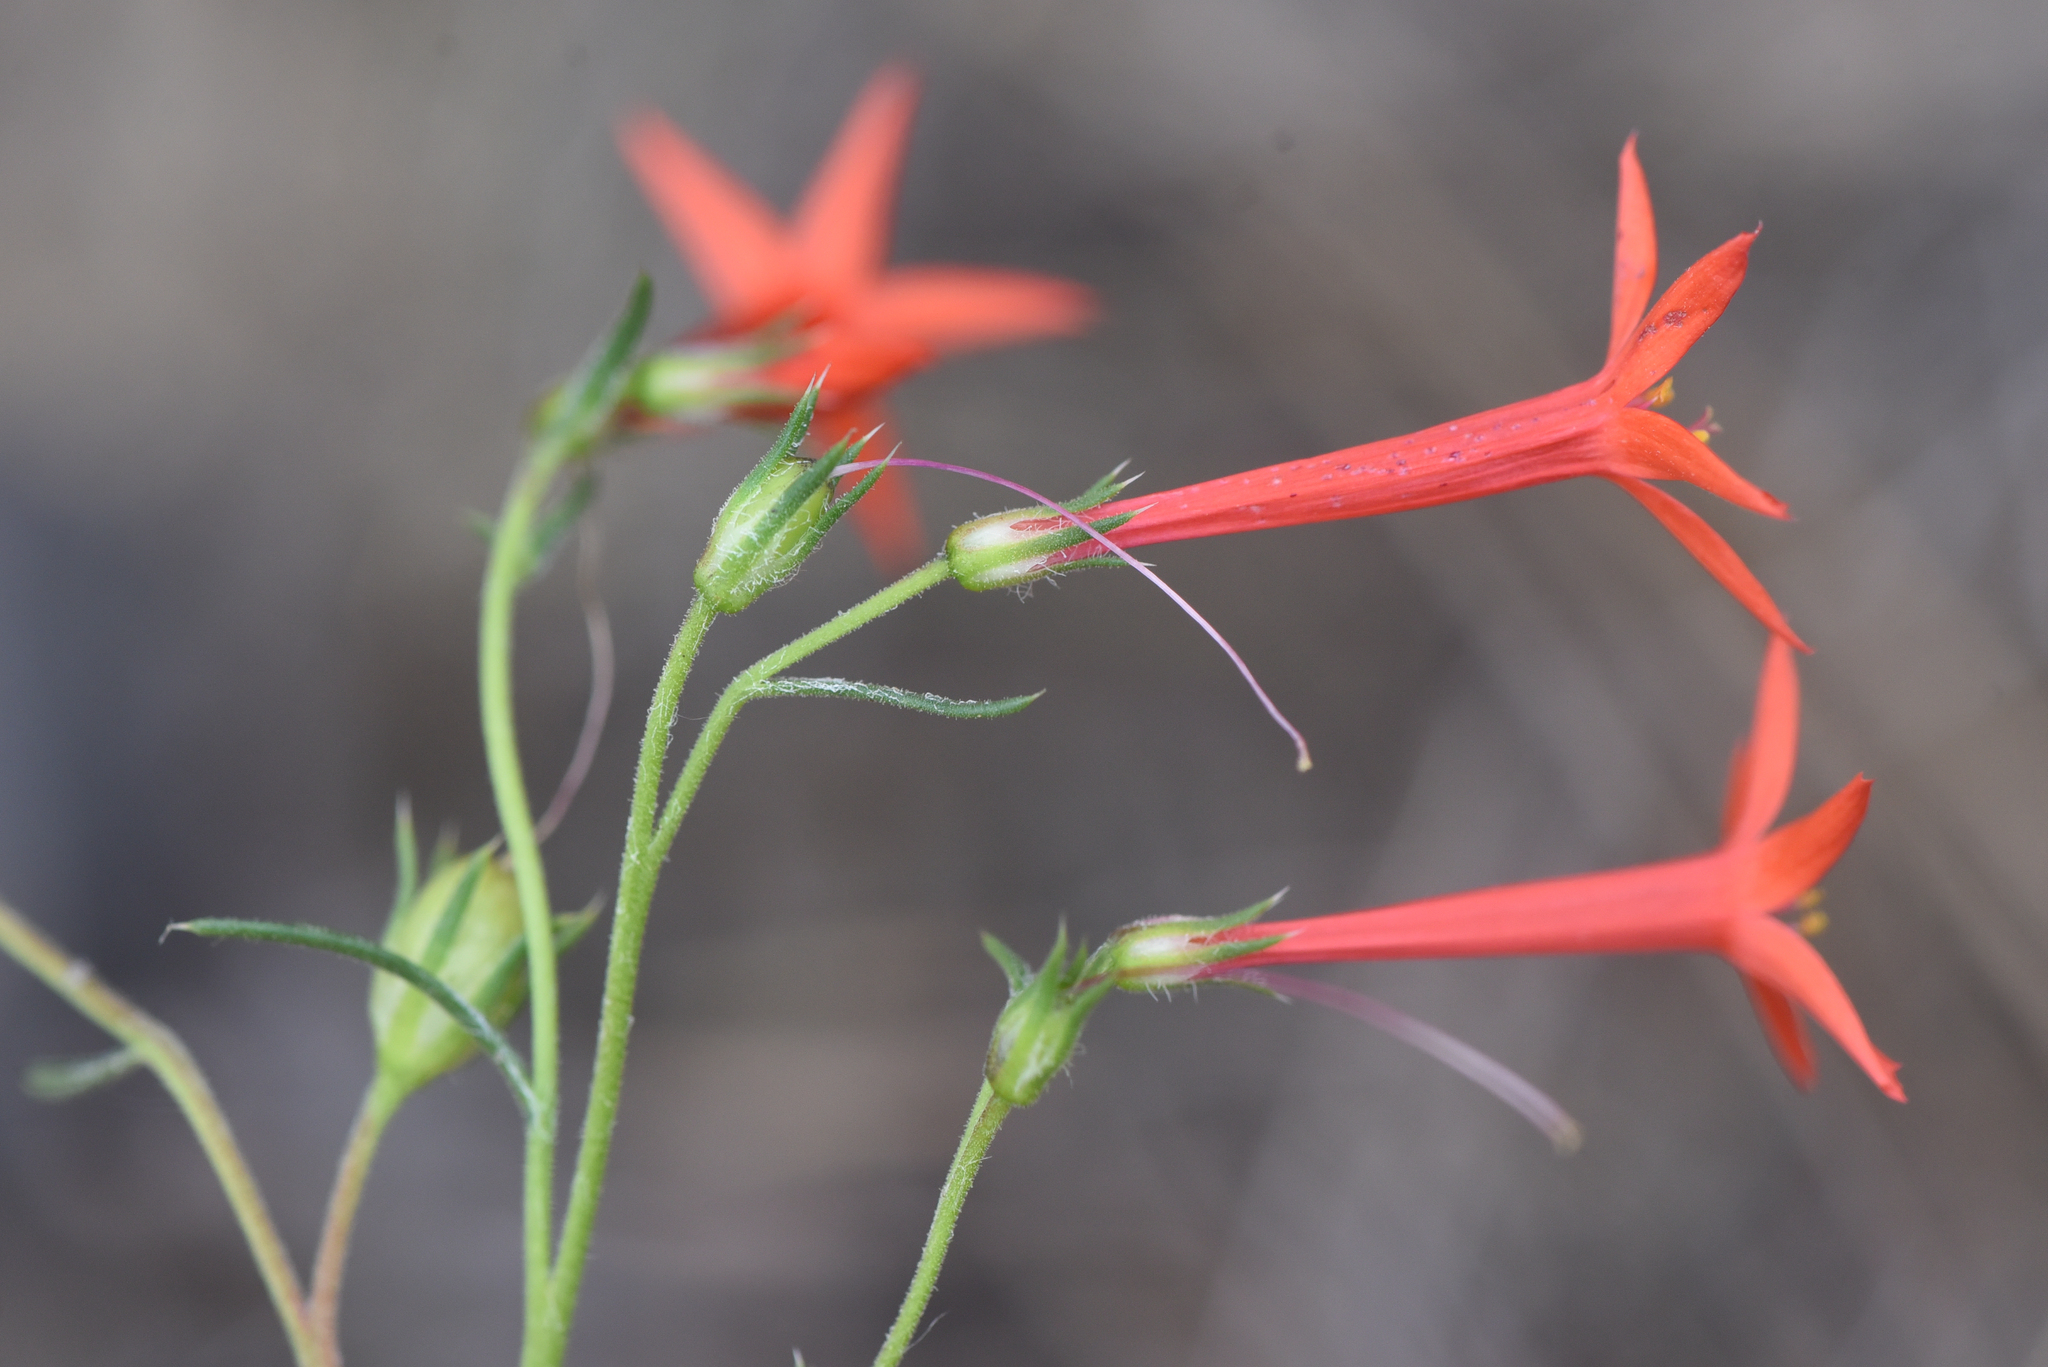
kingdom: Plantae
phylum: Tracheophyta
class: Magnoliopsida
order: Ericales
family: Polemoniaceae
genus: Ipomopsis
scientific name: Ipomopsis aggregata
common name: Scarlet gilia
